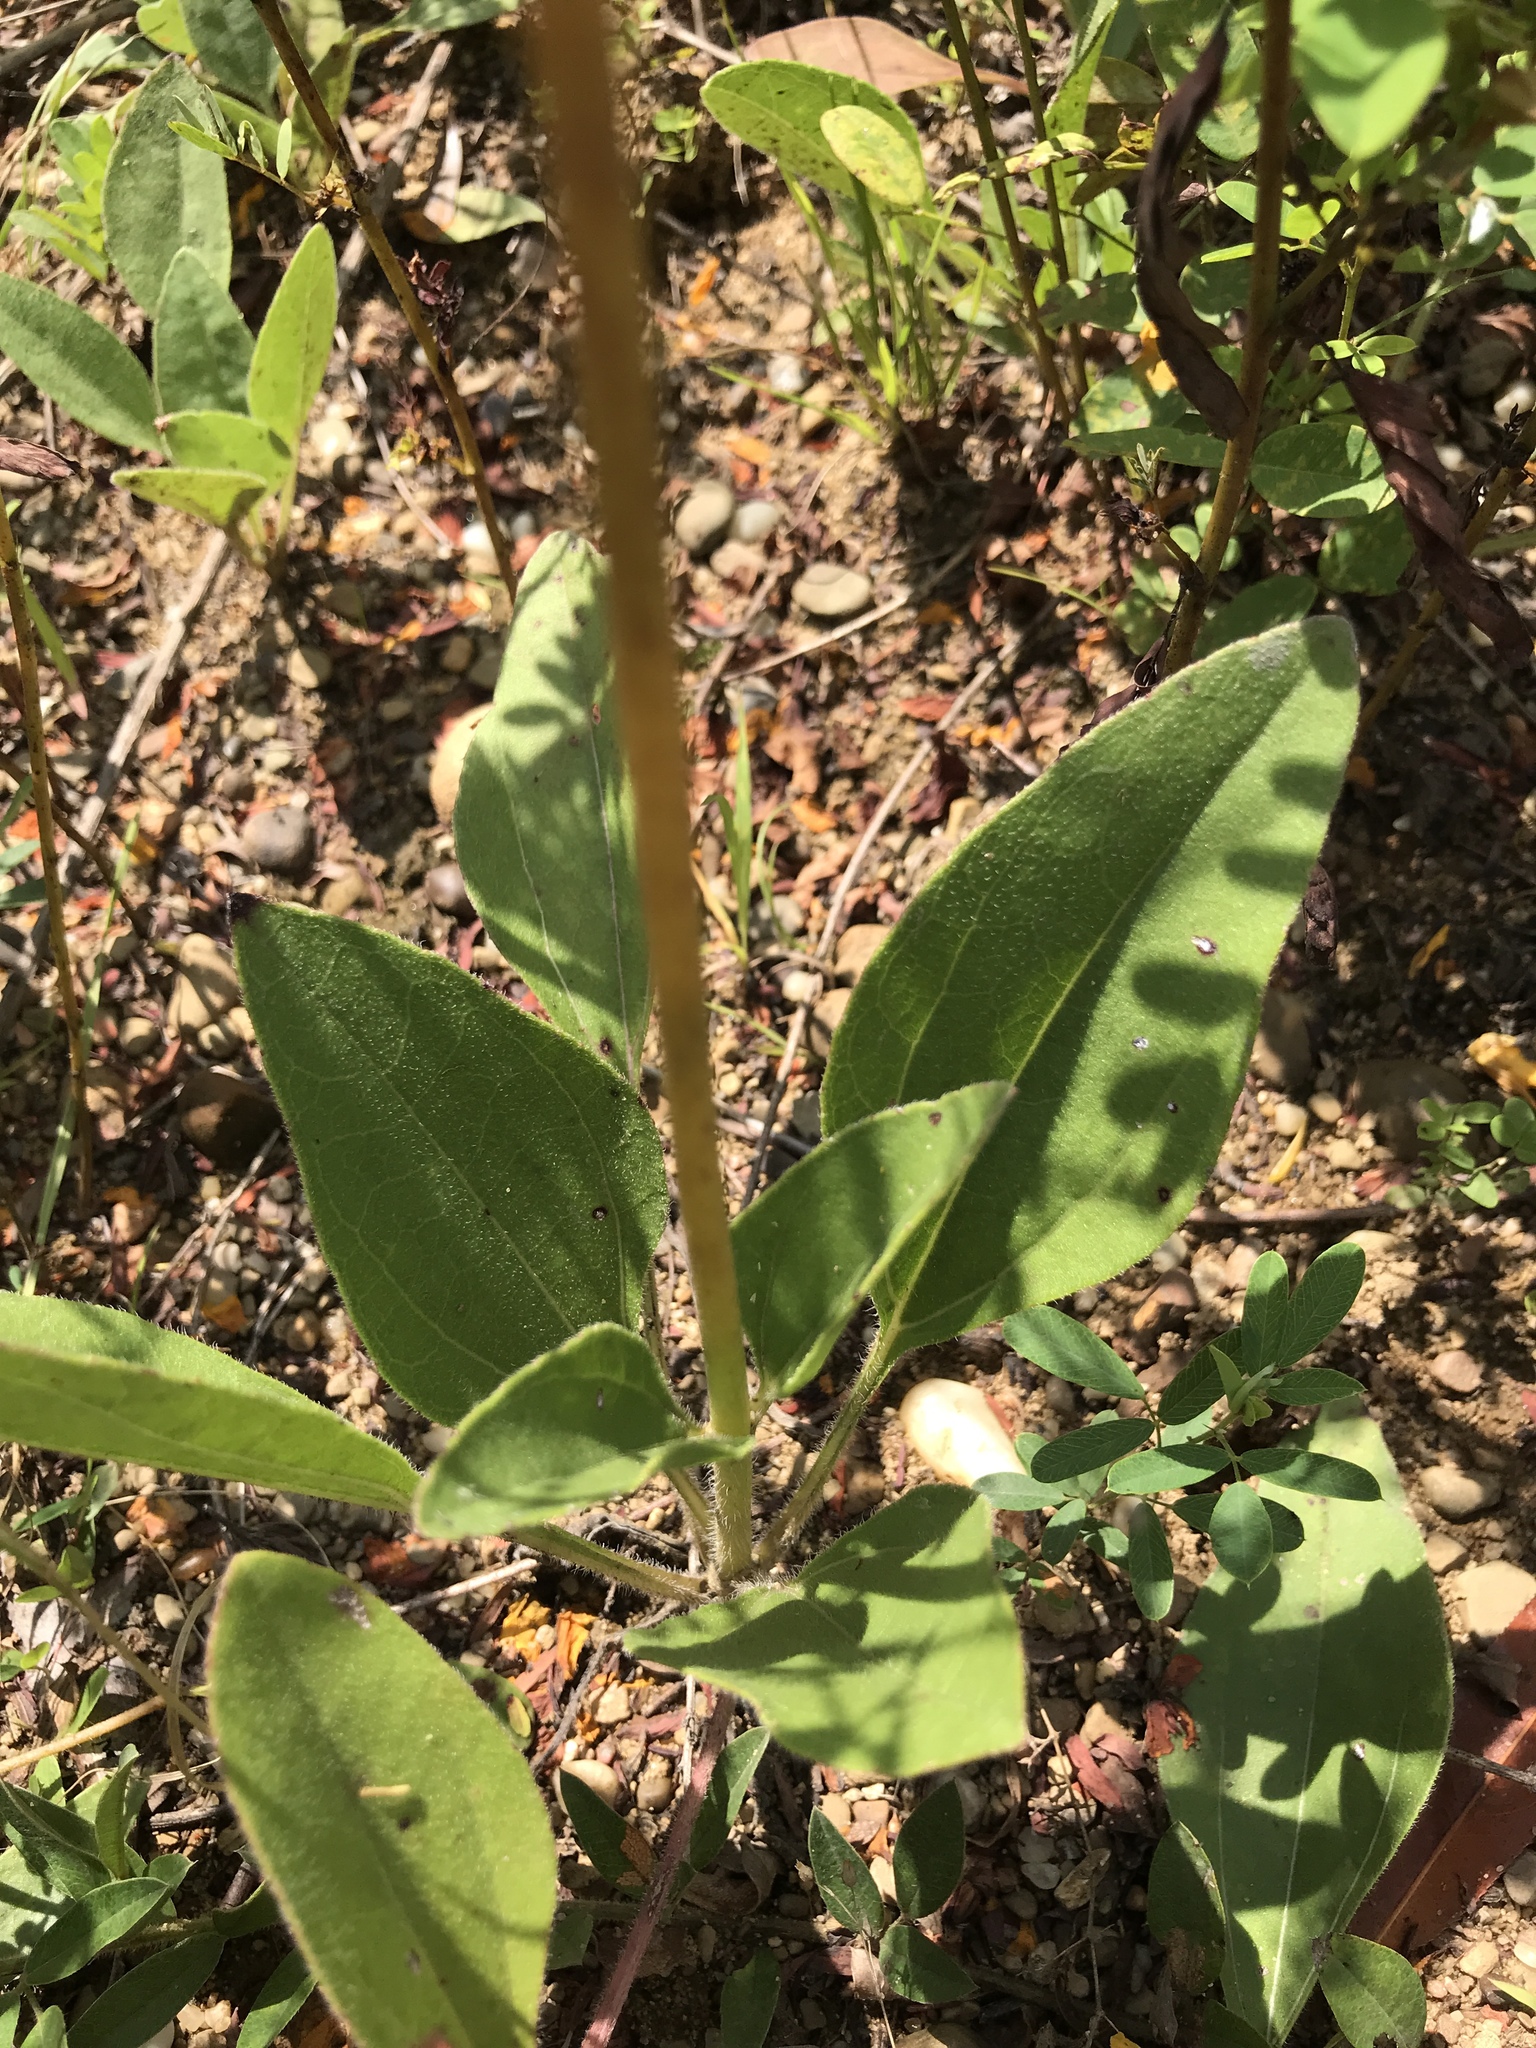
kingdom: Plantae
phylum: Tracheophyta
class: Magnoliopsida
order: Asterales
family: Asteraceae
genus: Helianthus
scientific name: Helianthus occidentalis
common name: Western sunflower
